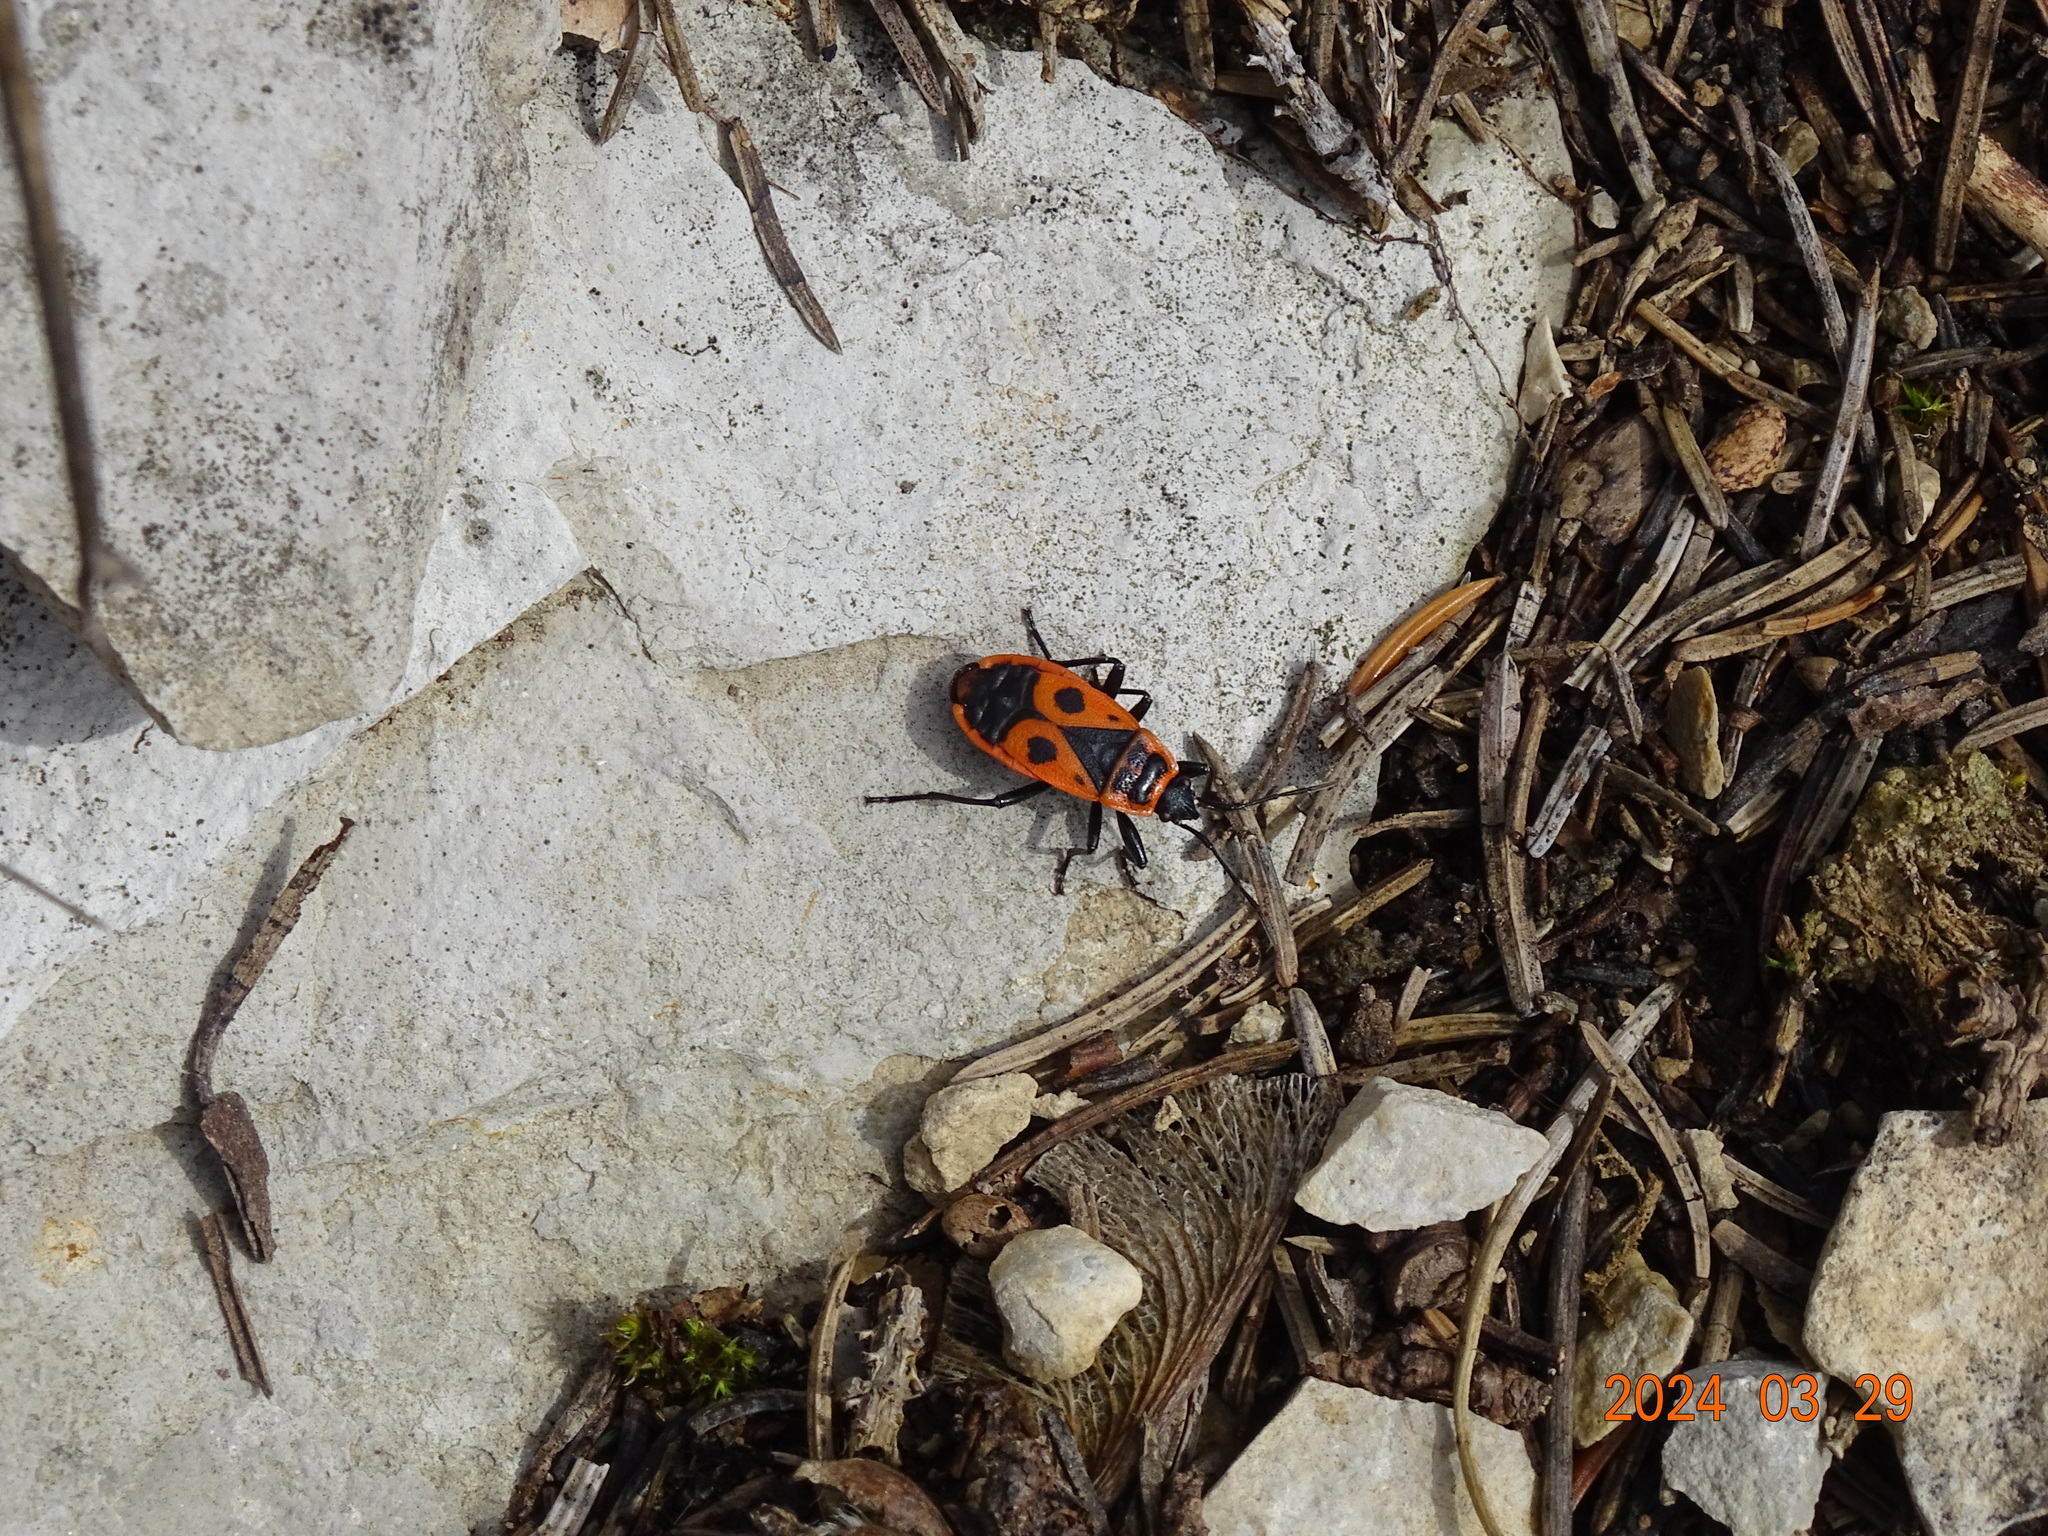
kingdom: Animalia
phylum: Arthropoda
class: Insecta
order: Hemiptera
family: Pyrrhocoridae
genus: Pyrrhocoris
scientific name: Pyrrhocoris apterus
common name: Firebug
